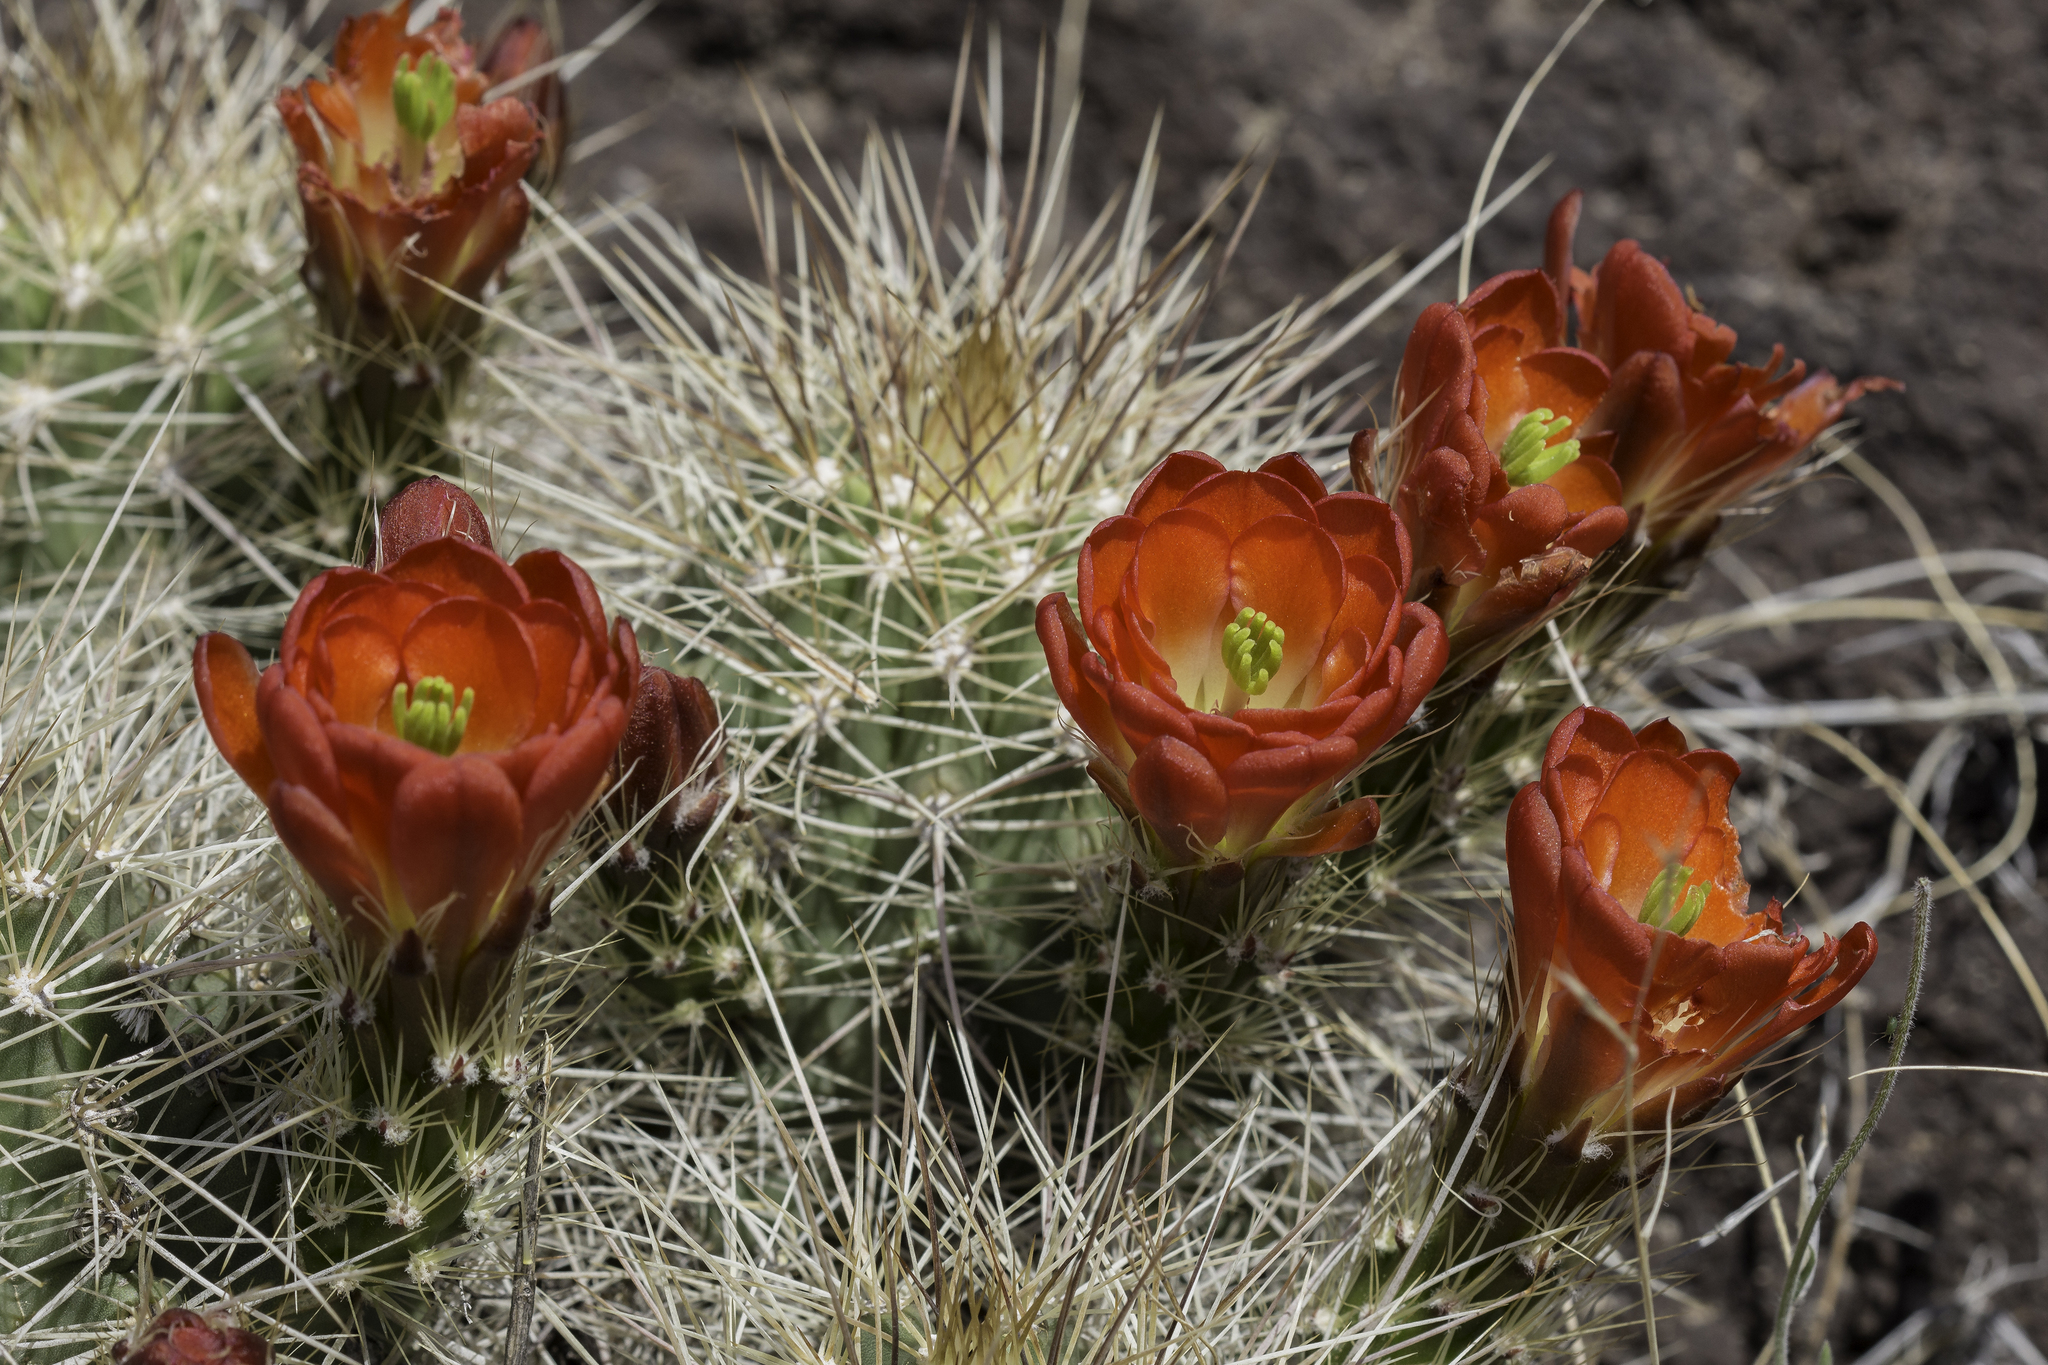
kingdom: Plantae
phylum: Tracheophyta
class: Magnoliopsida
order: Caryophyllales
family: Cactaceae
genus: Echinocereus
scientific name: Echinocereus coccineus
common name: Scarlet hedgehog cactus
